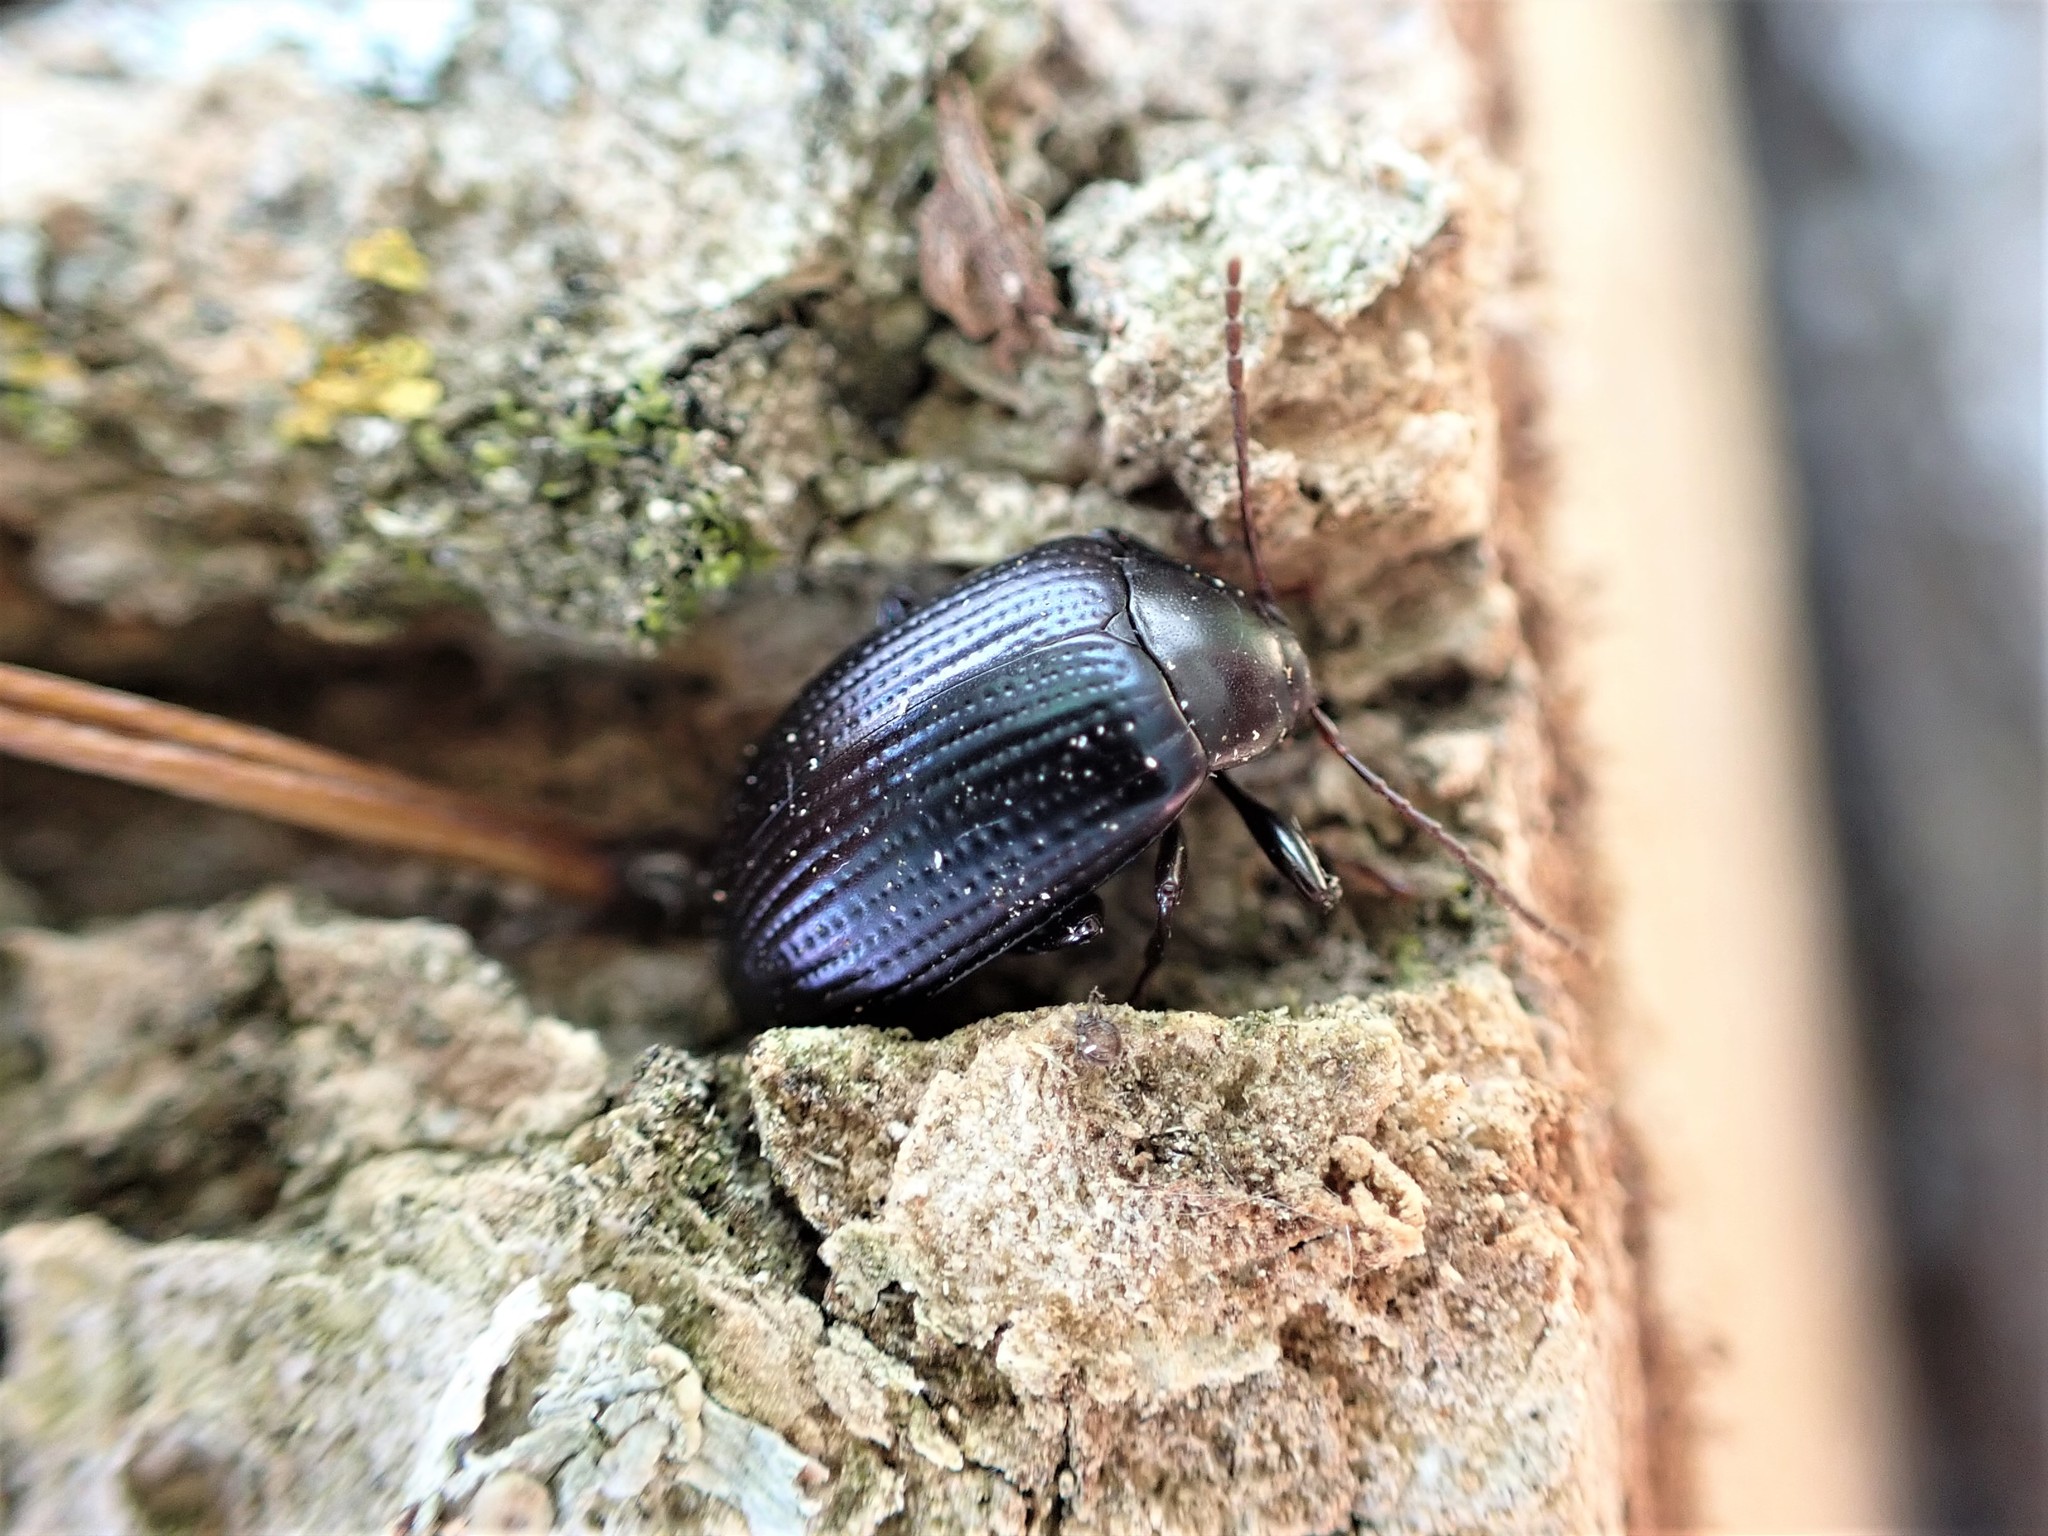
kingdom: Animalia
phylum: Arthropoda
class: Insecta
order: Coleoptera
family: Tenebrionidae
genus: Amarygmus
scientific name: Amarygmus
